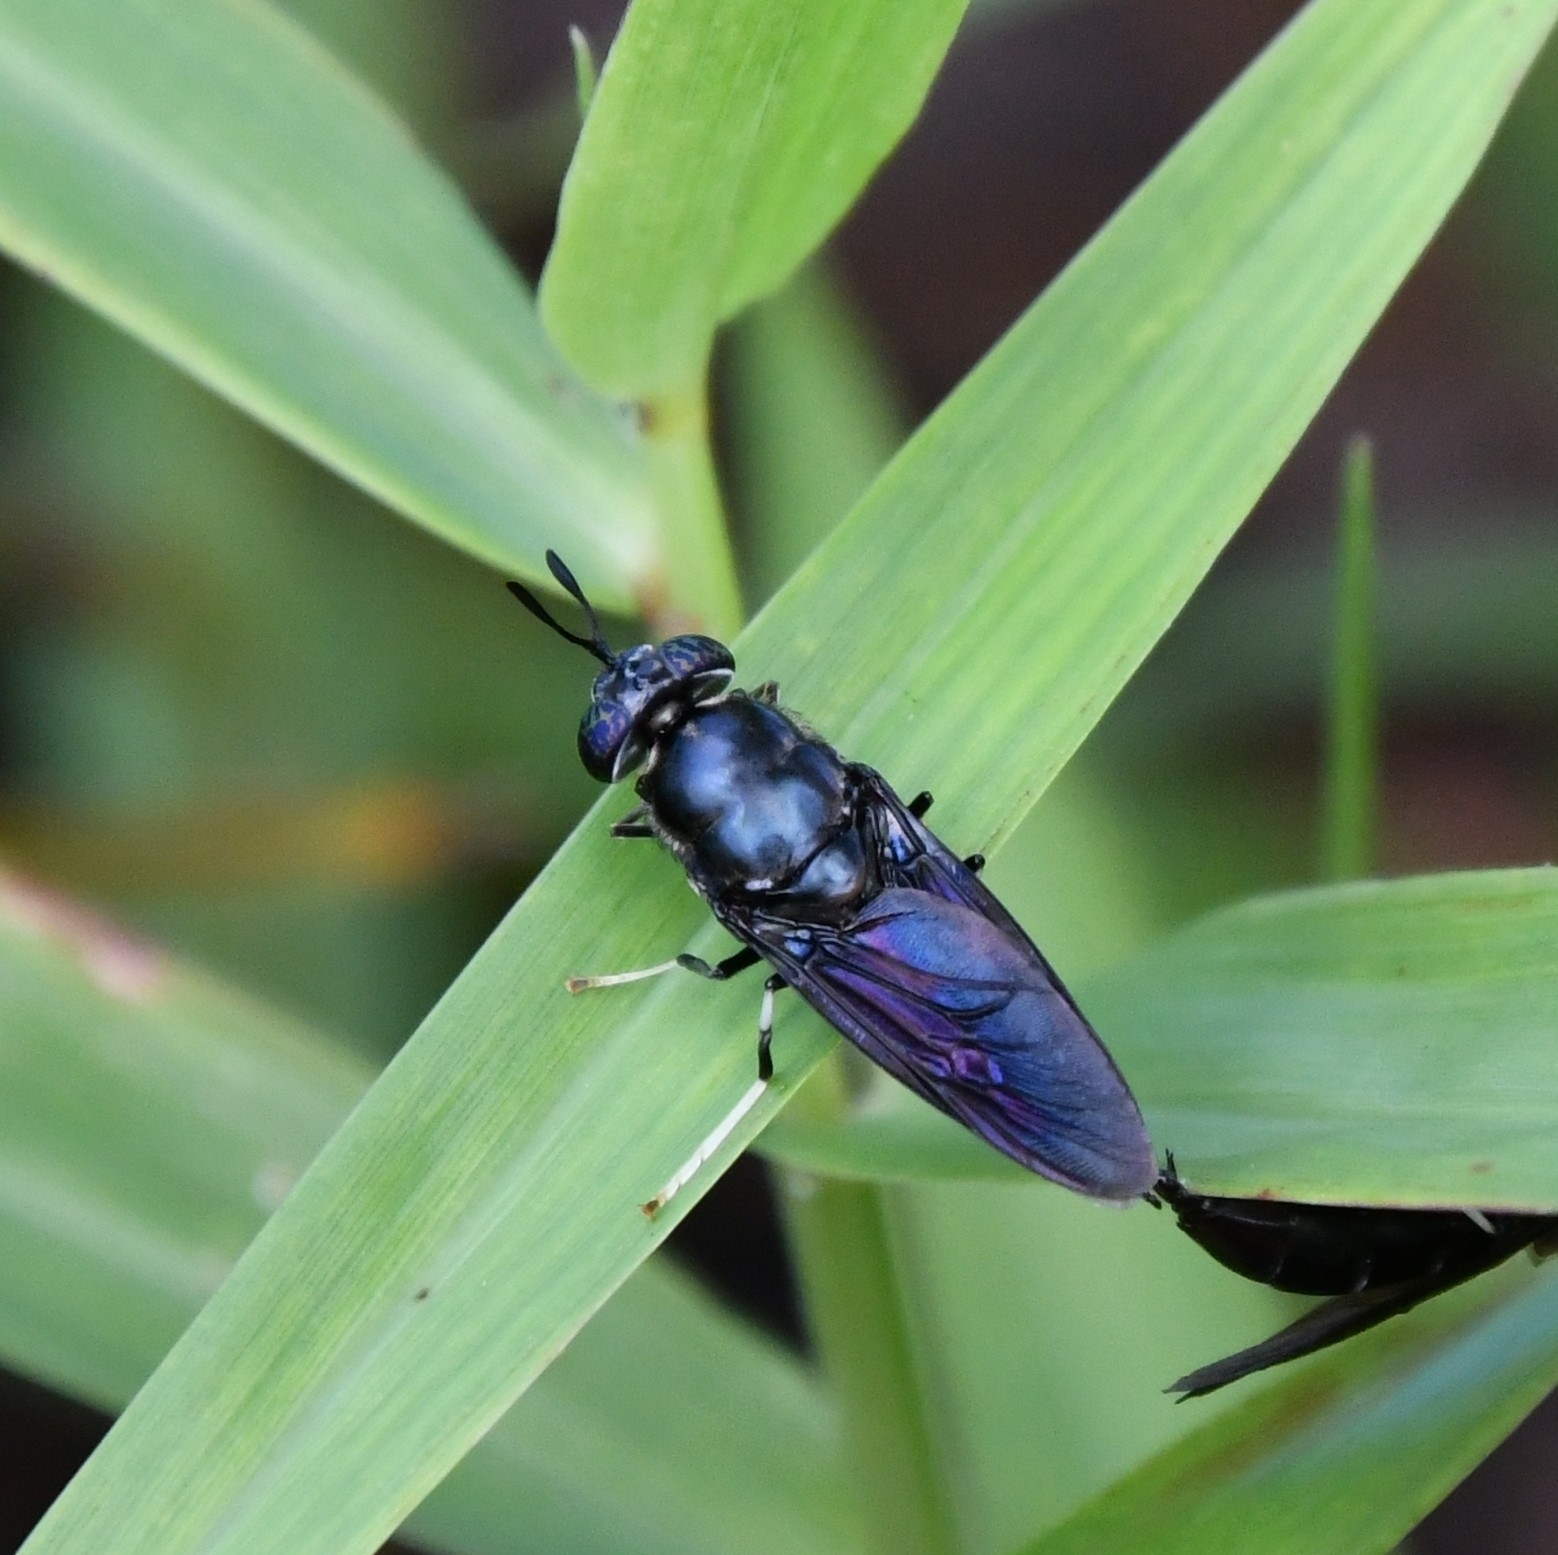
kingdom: Animalia
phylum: Arthropoda
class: Insecta
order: Diptera
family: Stratiomyidae
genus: Hermetia
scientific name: Hermetia illucens
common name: Black soldier fly
